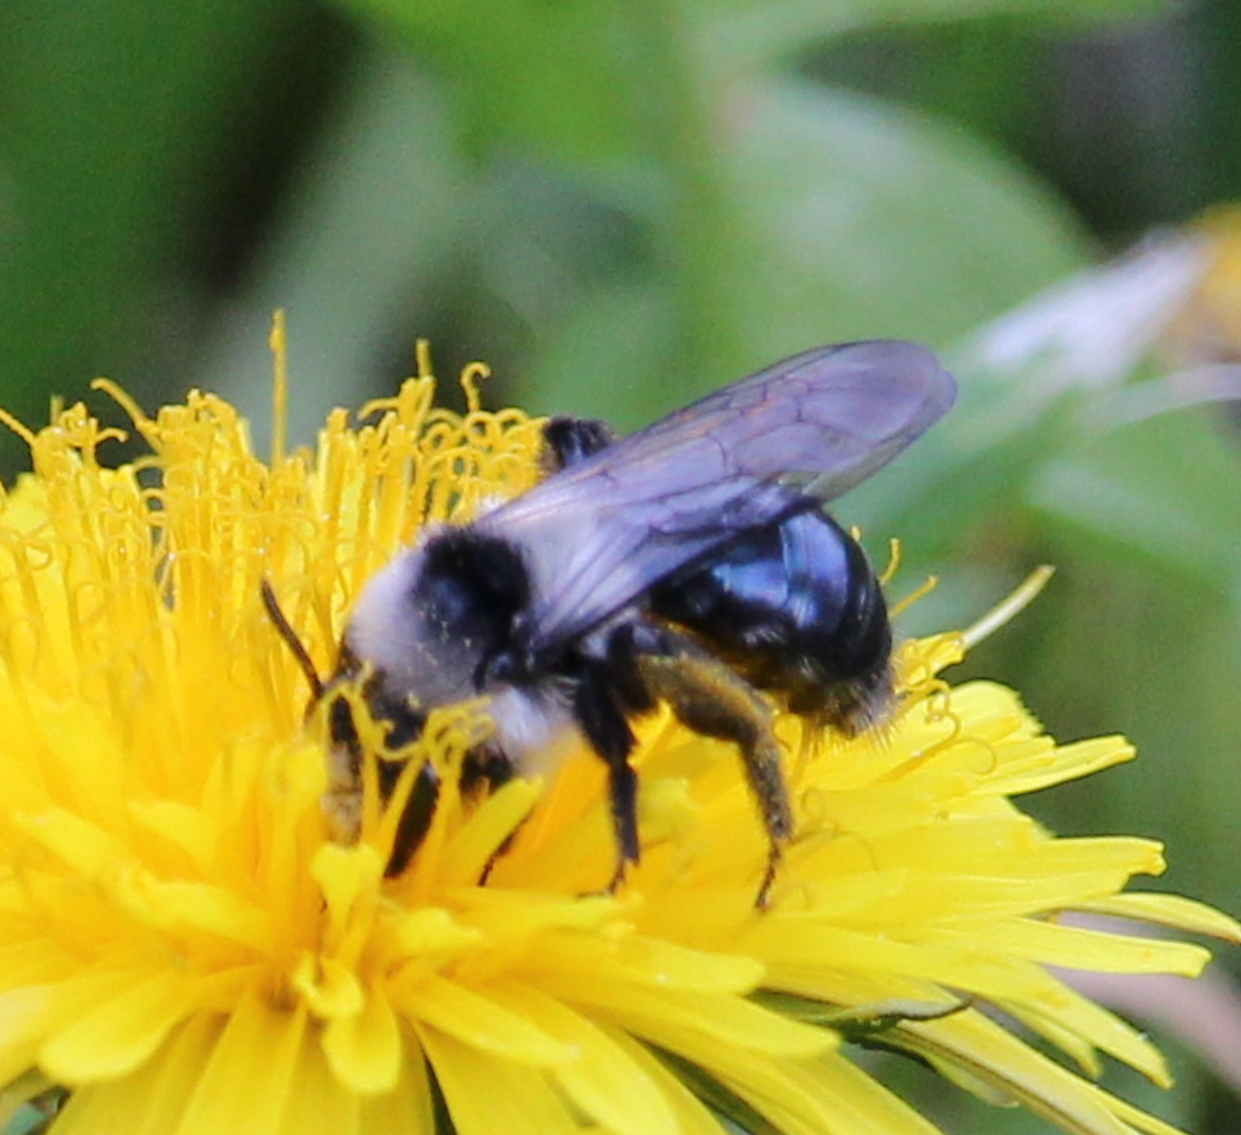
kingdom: Animalia
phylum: Arthropoda
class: Insecta
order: Hymenoptera
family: Andrenidae
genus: Andrena
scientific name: Andrena cineraria
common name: Ashy mining bee
